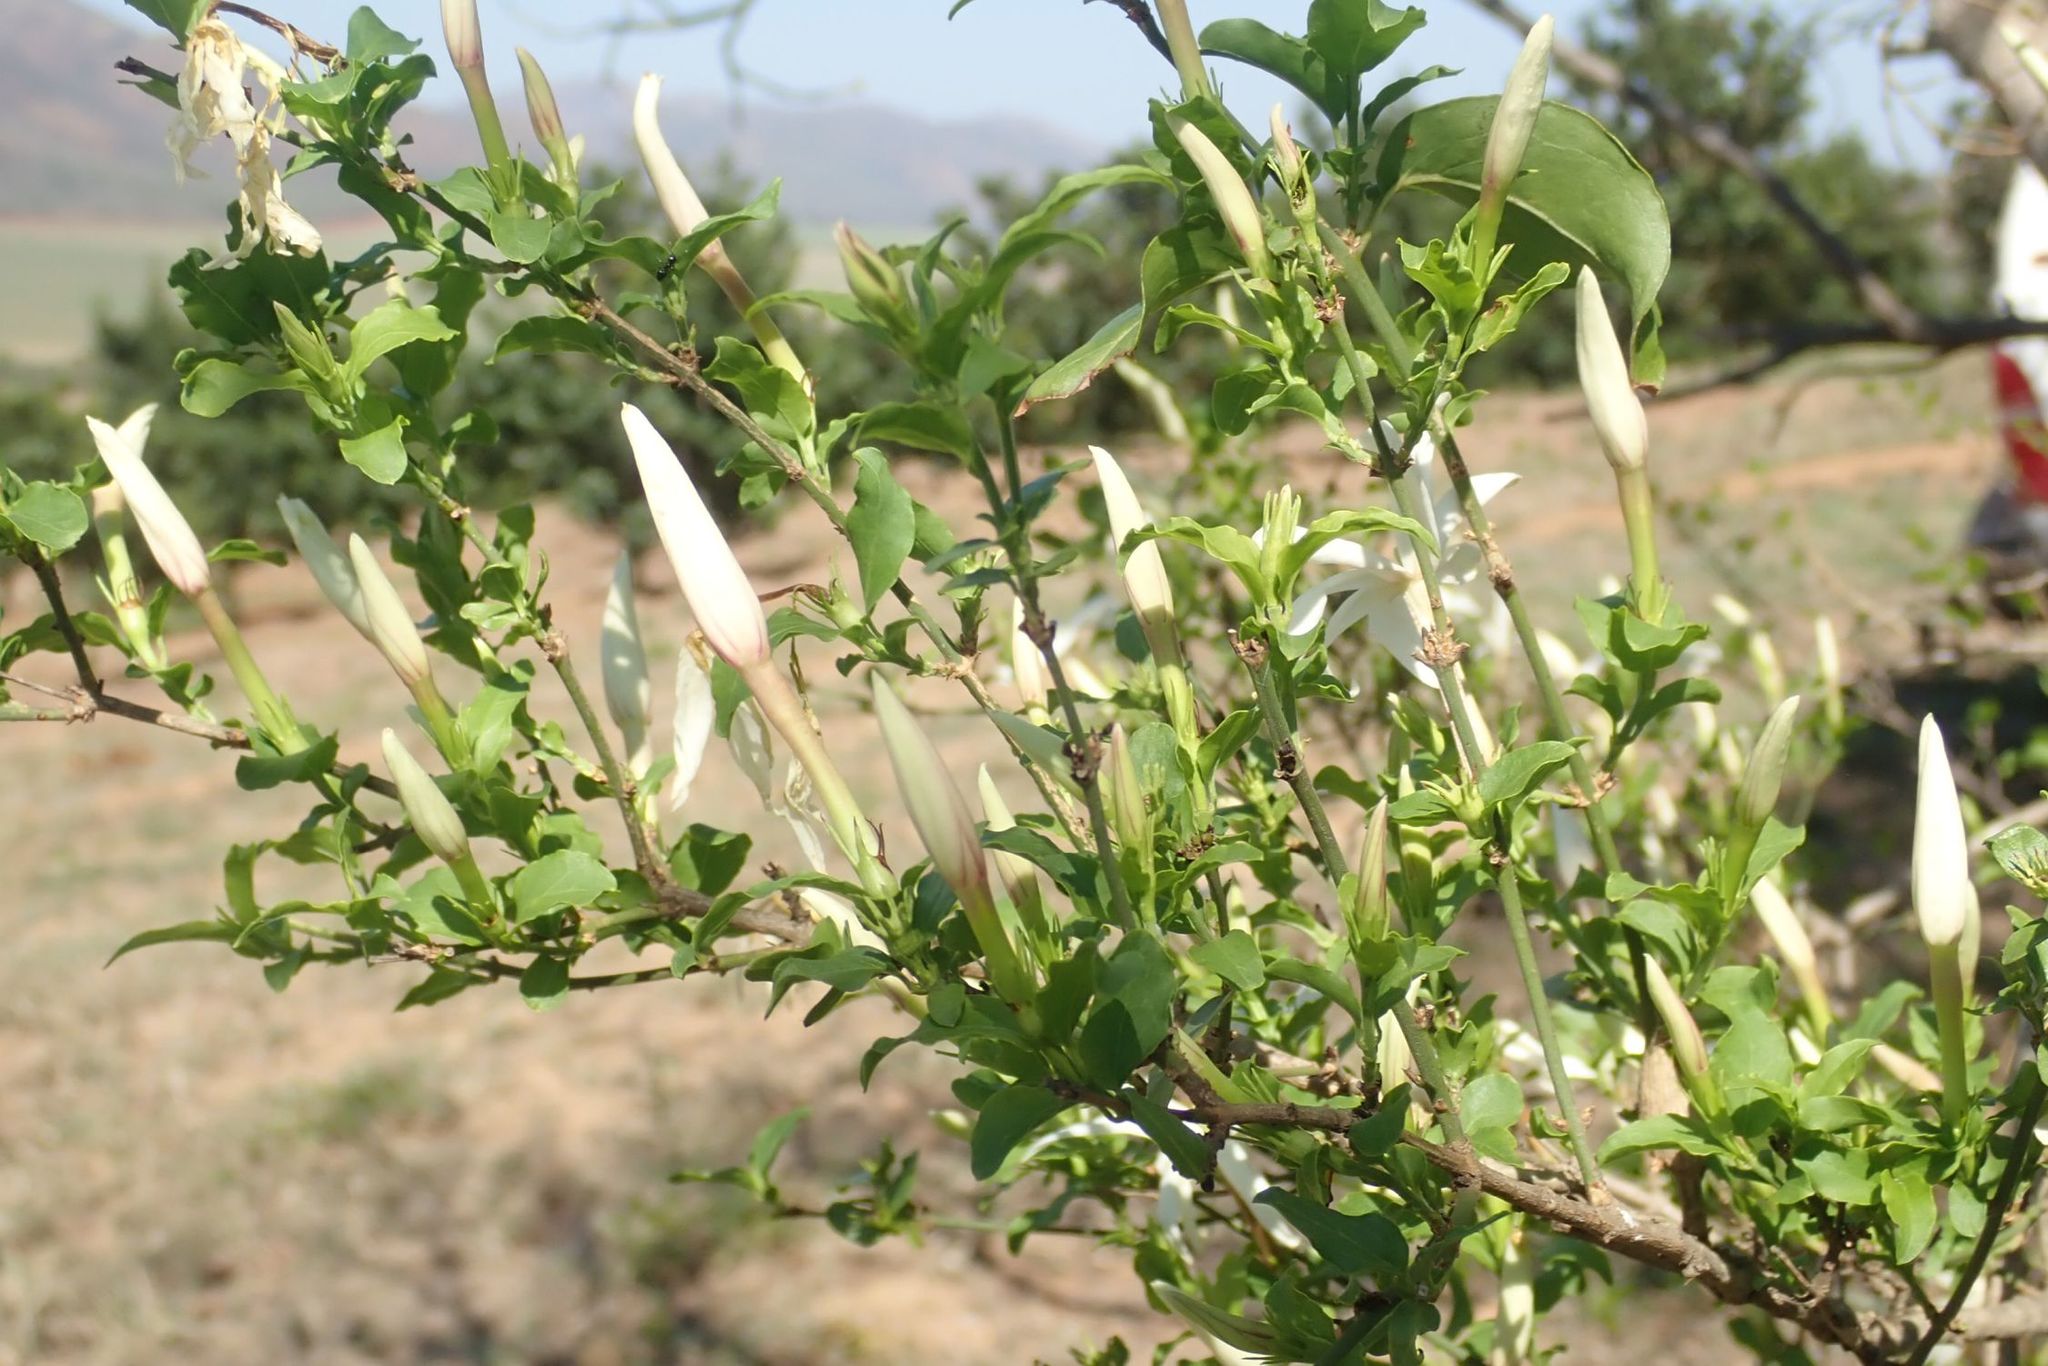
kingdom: Plantae
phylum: Tracheophyta
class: Magnoliopsida
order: Lamiales
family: Oleaceae
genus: Jasminum
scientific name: Jasminum multipartitum
